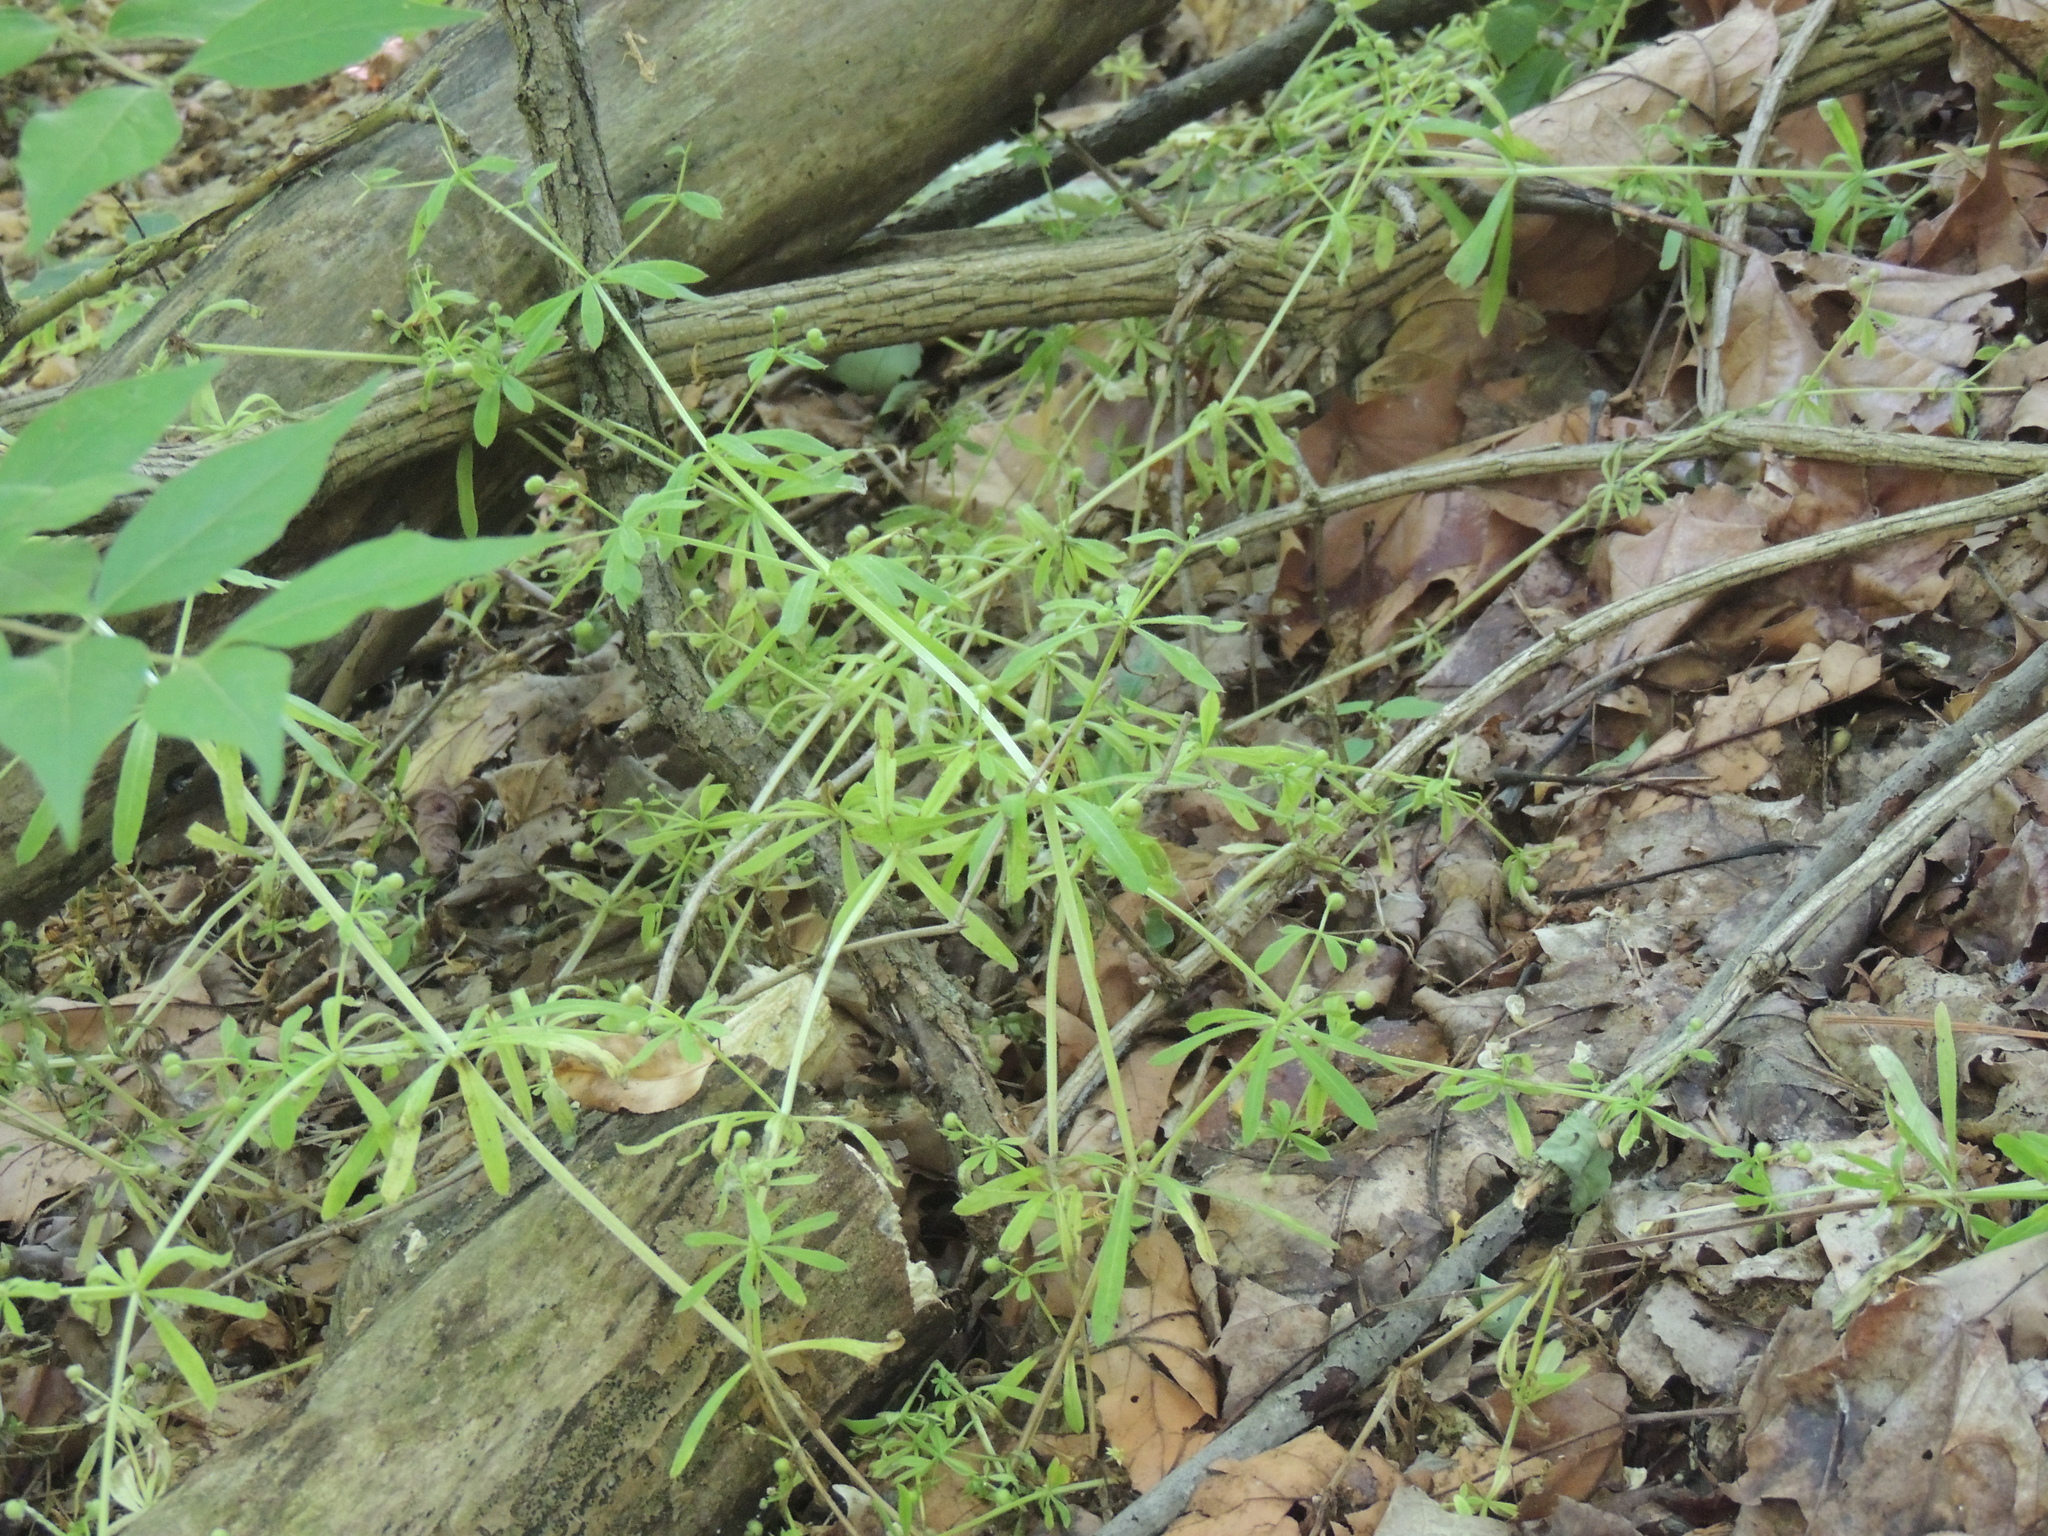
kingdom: Plantae
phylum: Tracheophyta
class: Magnoliopsida
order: Gentianales
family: Rubiaceae
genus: Galium
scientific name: Galium aparine
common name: Cleavers
